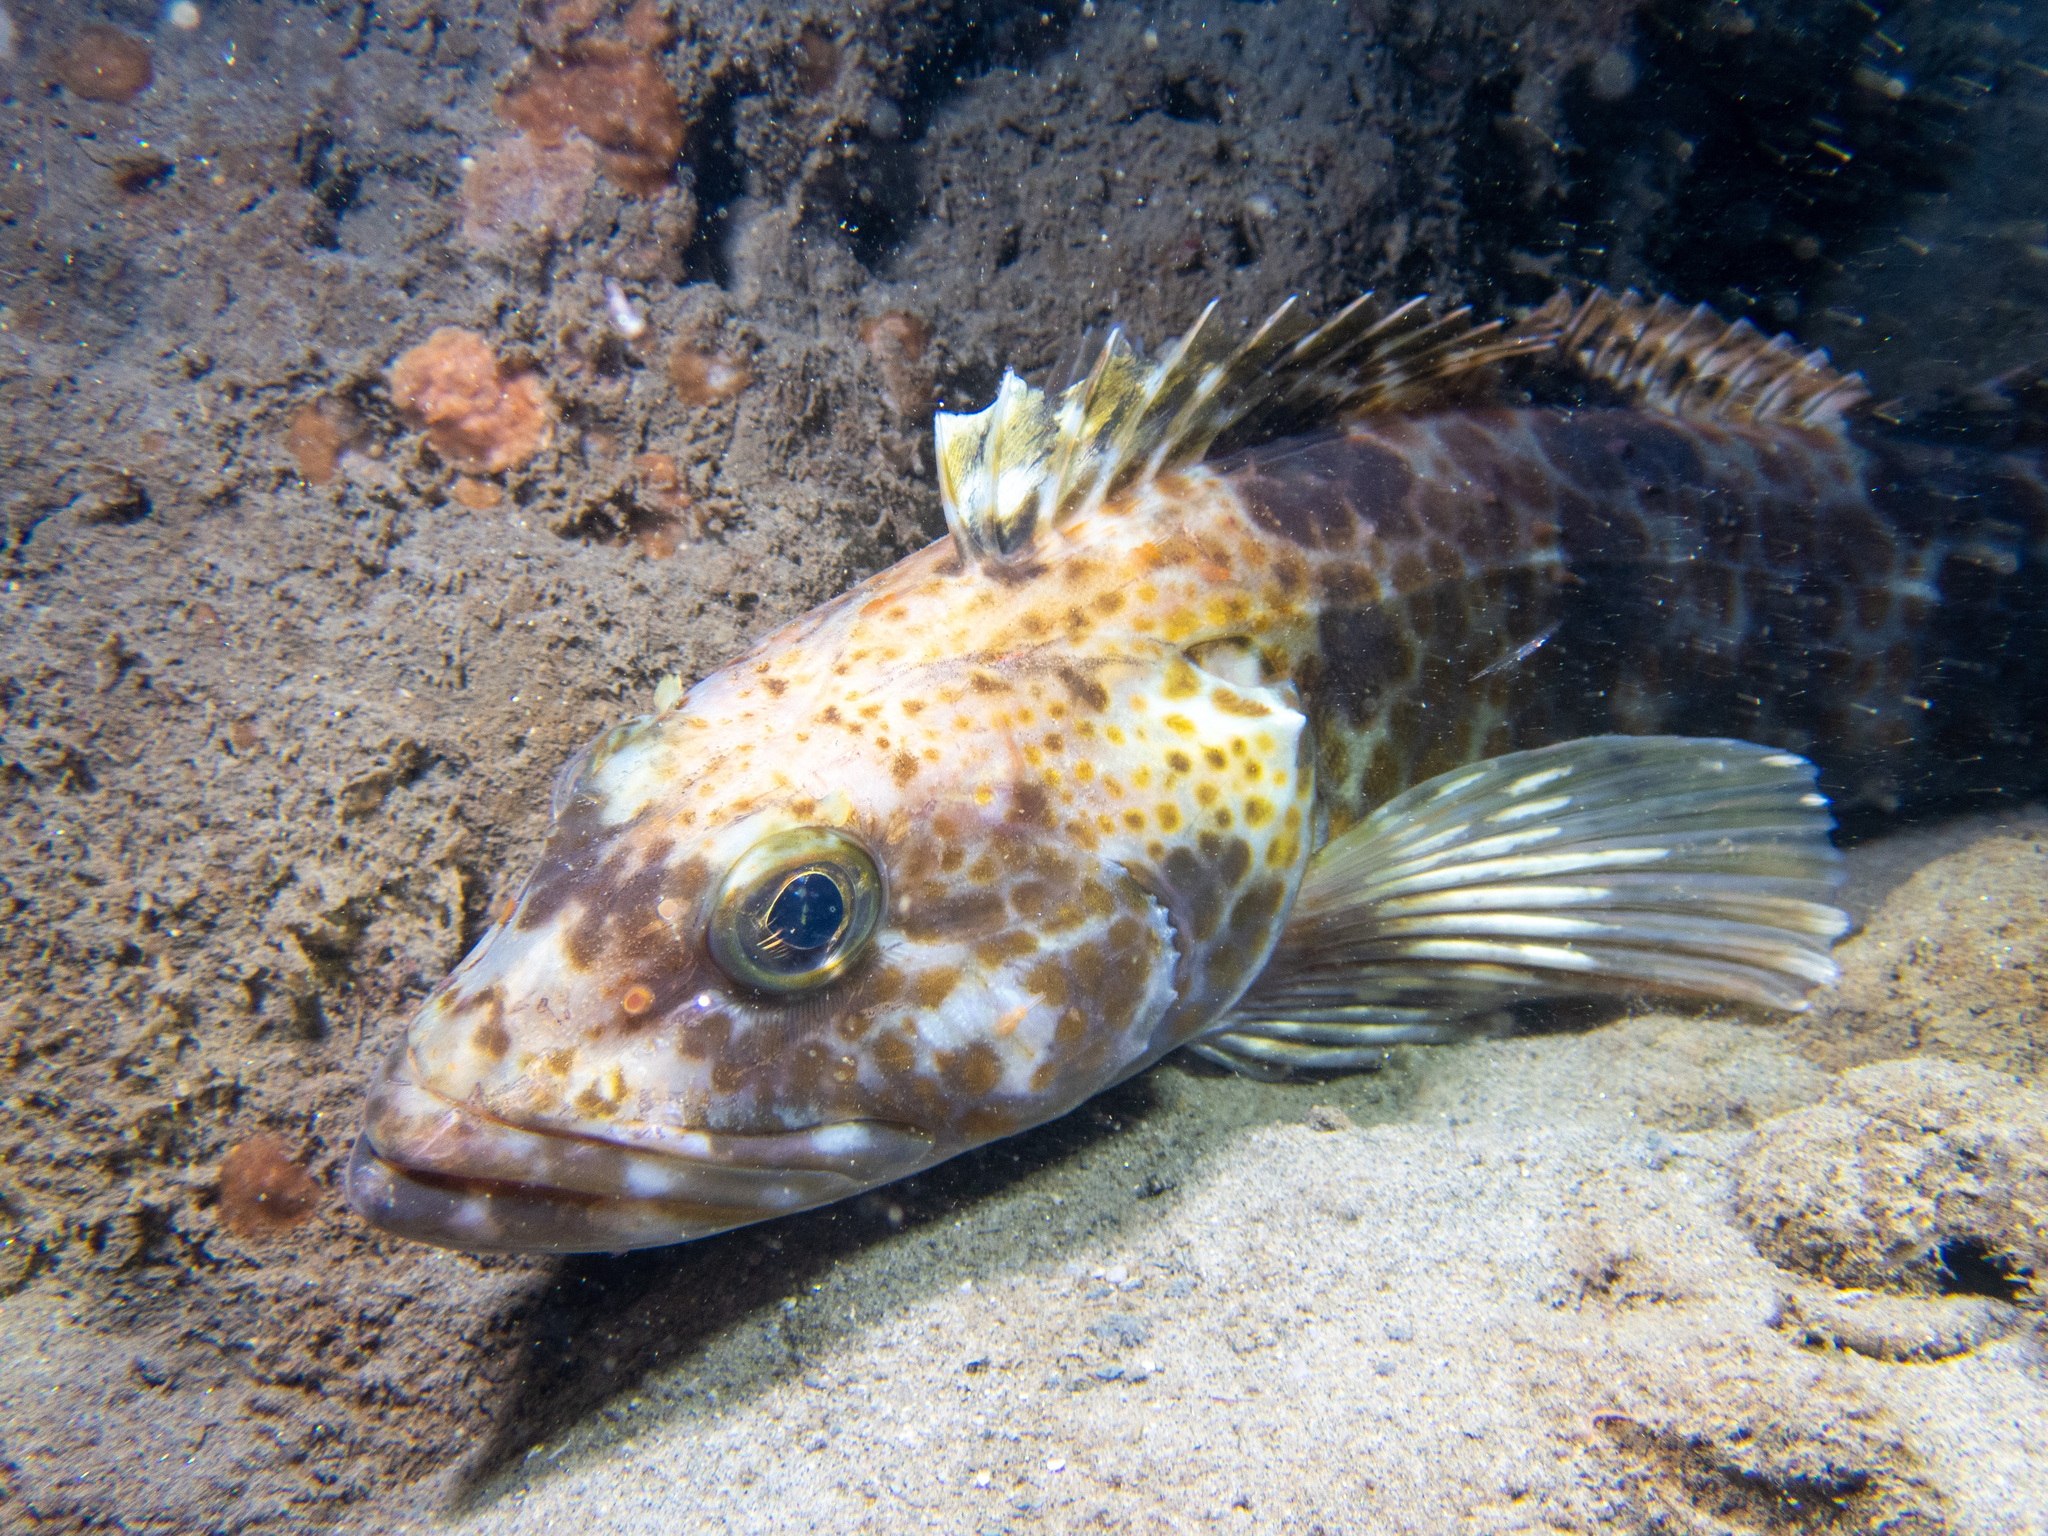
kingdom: Animalia
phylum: Chordata
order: Scorpaeniformes
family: Hexagrammidae
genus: Ophiodon
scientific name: Ophiodon elongatus
